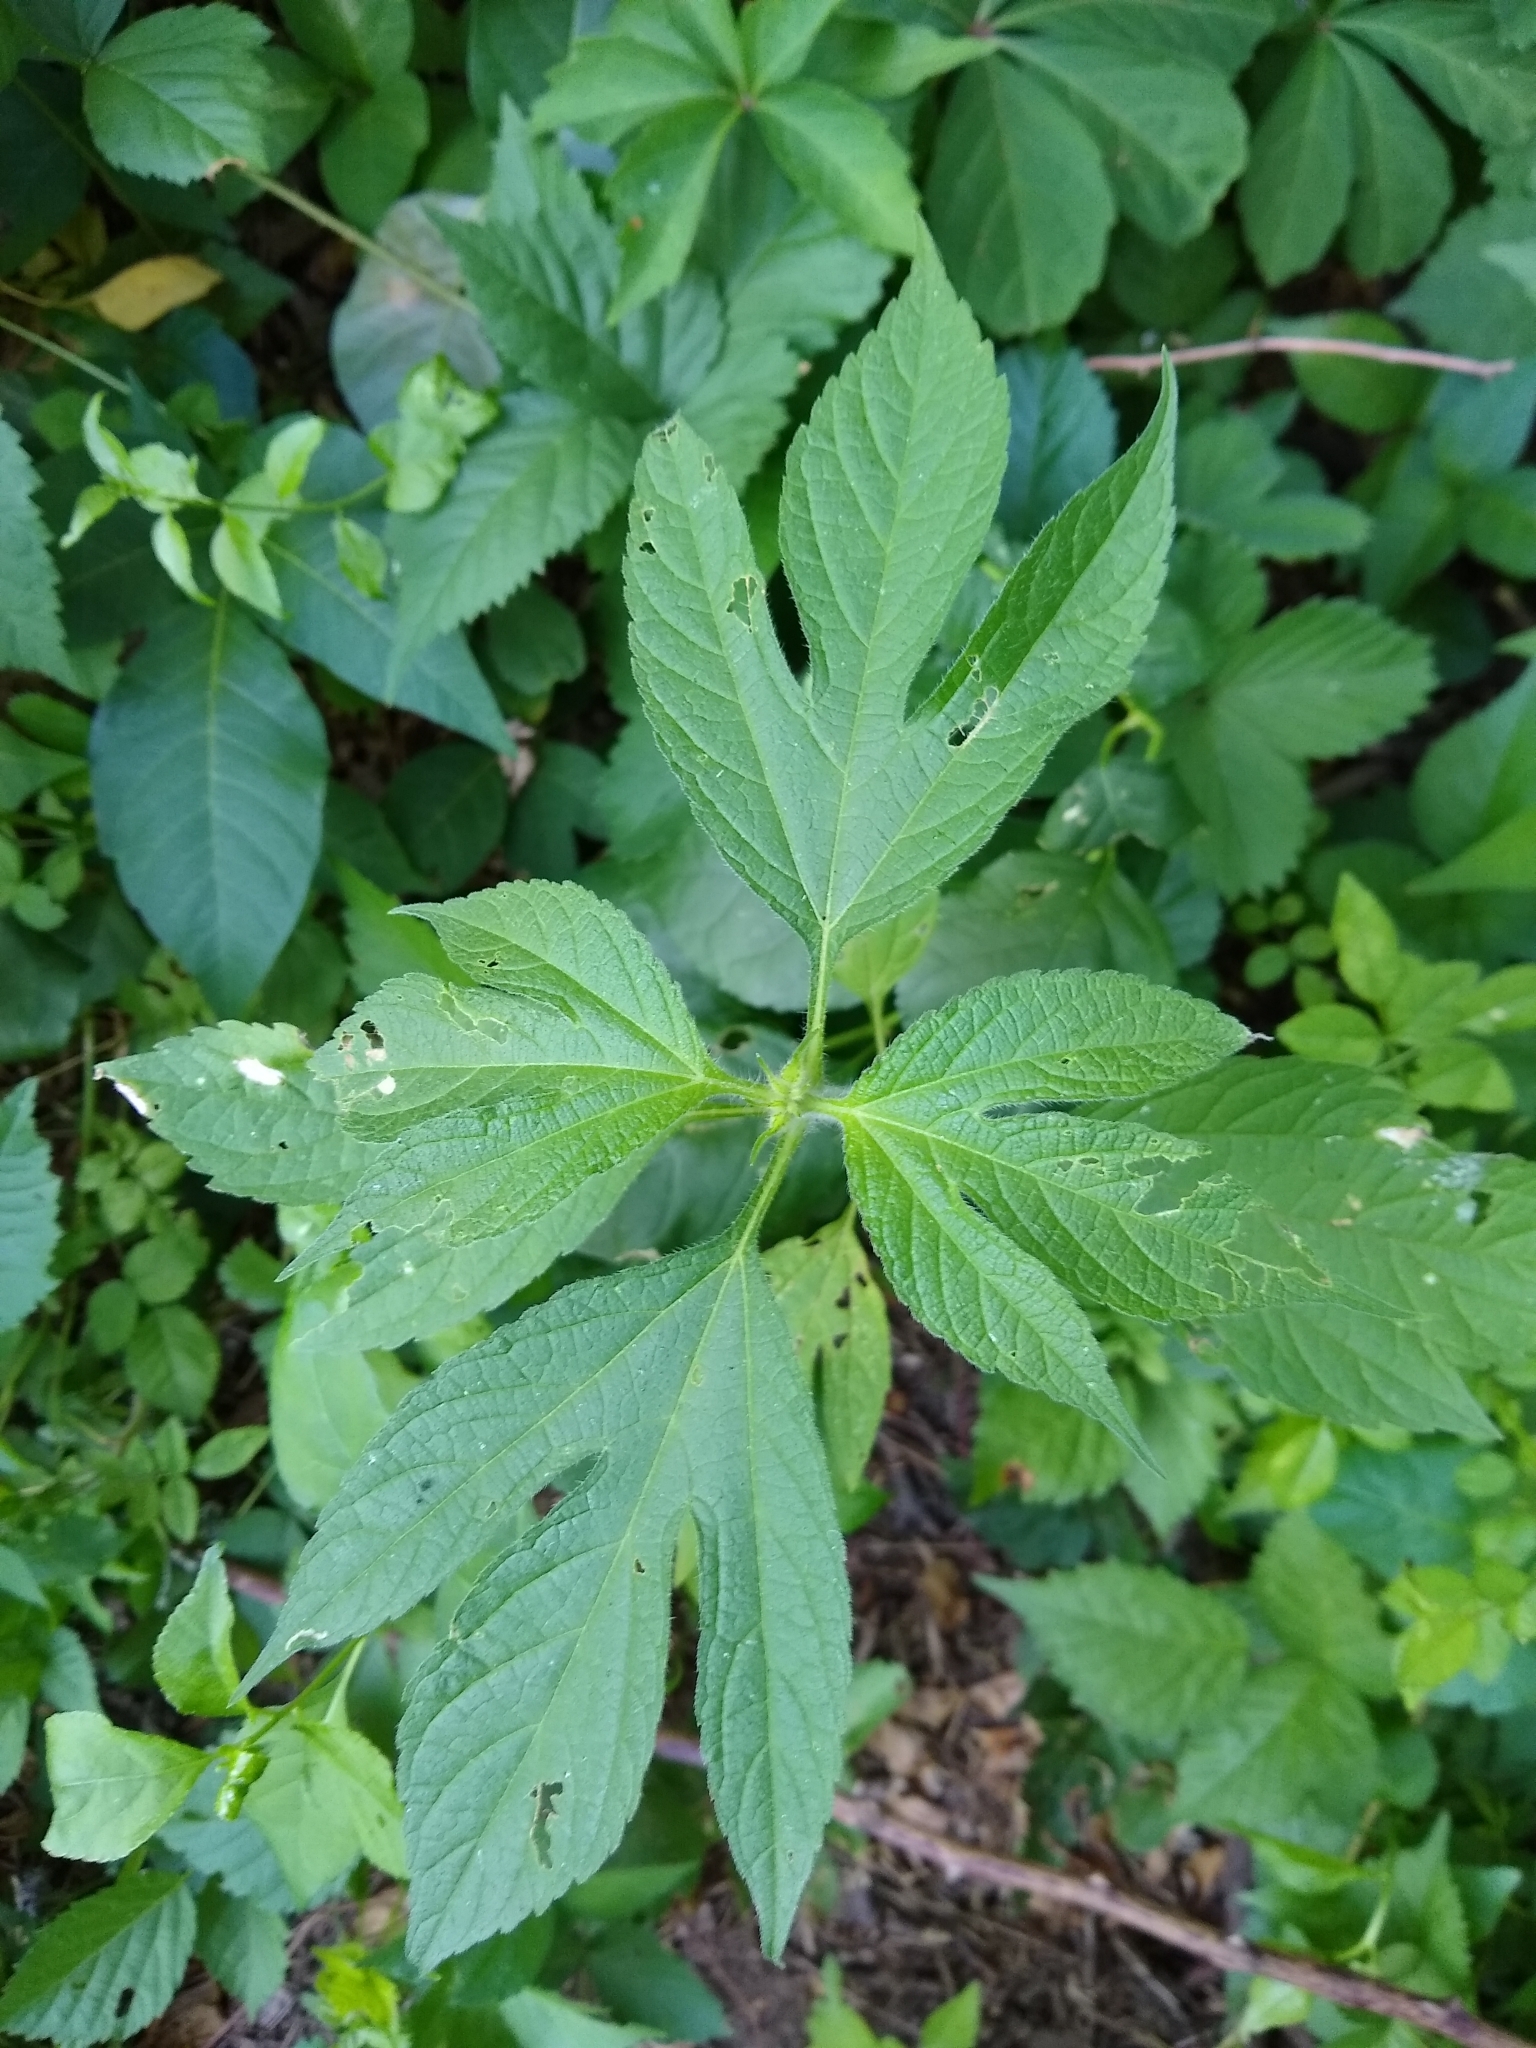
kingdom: Plantae
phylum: Tracheophyta
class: Magnoliopsida
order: Asterales
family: Asteraceae
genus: Ambrosia
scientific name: Ambrosia trifida
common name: Giant ragweed
